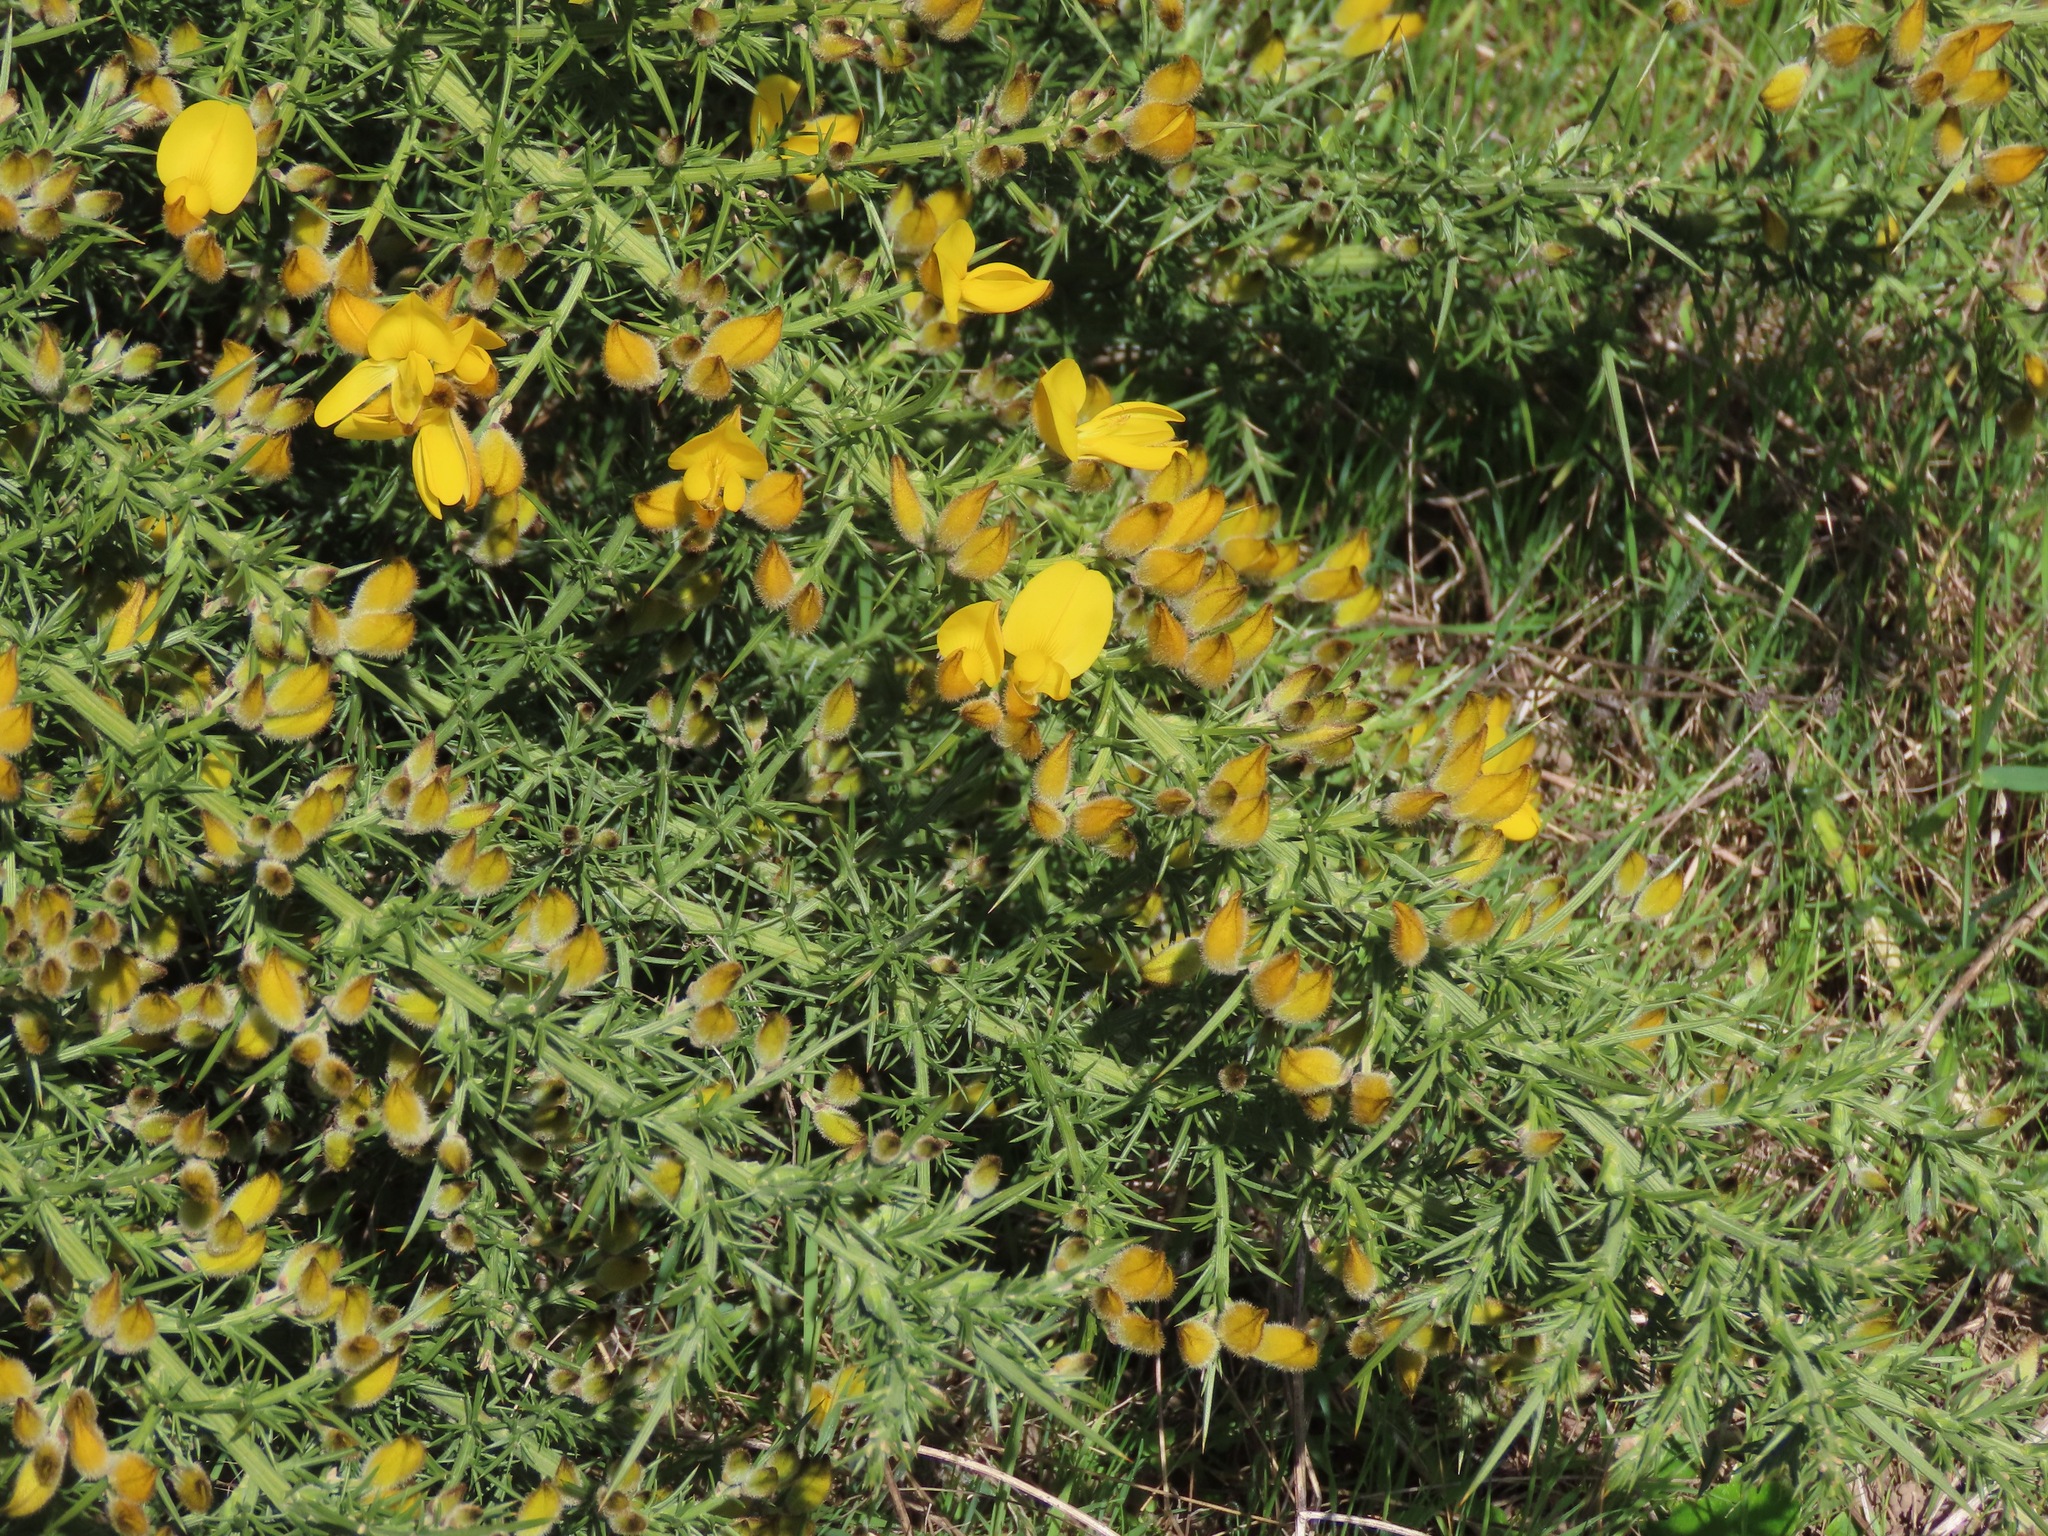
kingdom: Plantae
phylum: Tracheophyta
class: Magnoliopsida
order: Fabales
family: Fabaceae
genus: Ulex
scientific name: Ulex europaeus
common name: Common gorse
